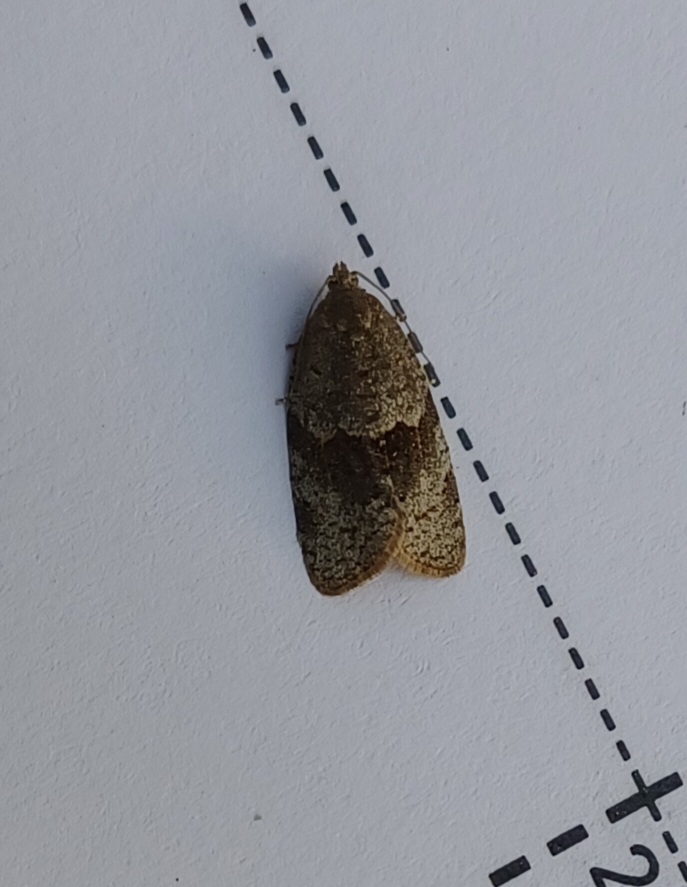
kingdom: Animalia
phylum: Arthropoda
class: Insecta
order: Lepidoptera
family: Tortricidae
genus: Syndemis
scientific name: Syndemis musculana
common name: Dark-barred twist
